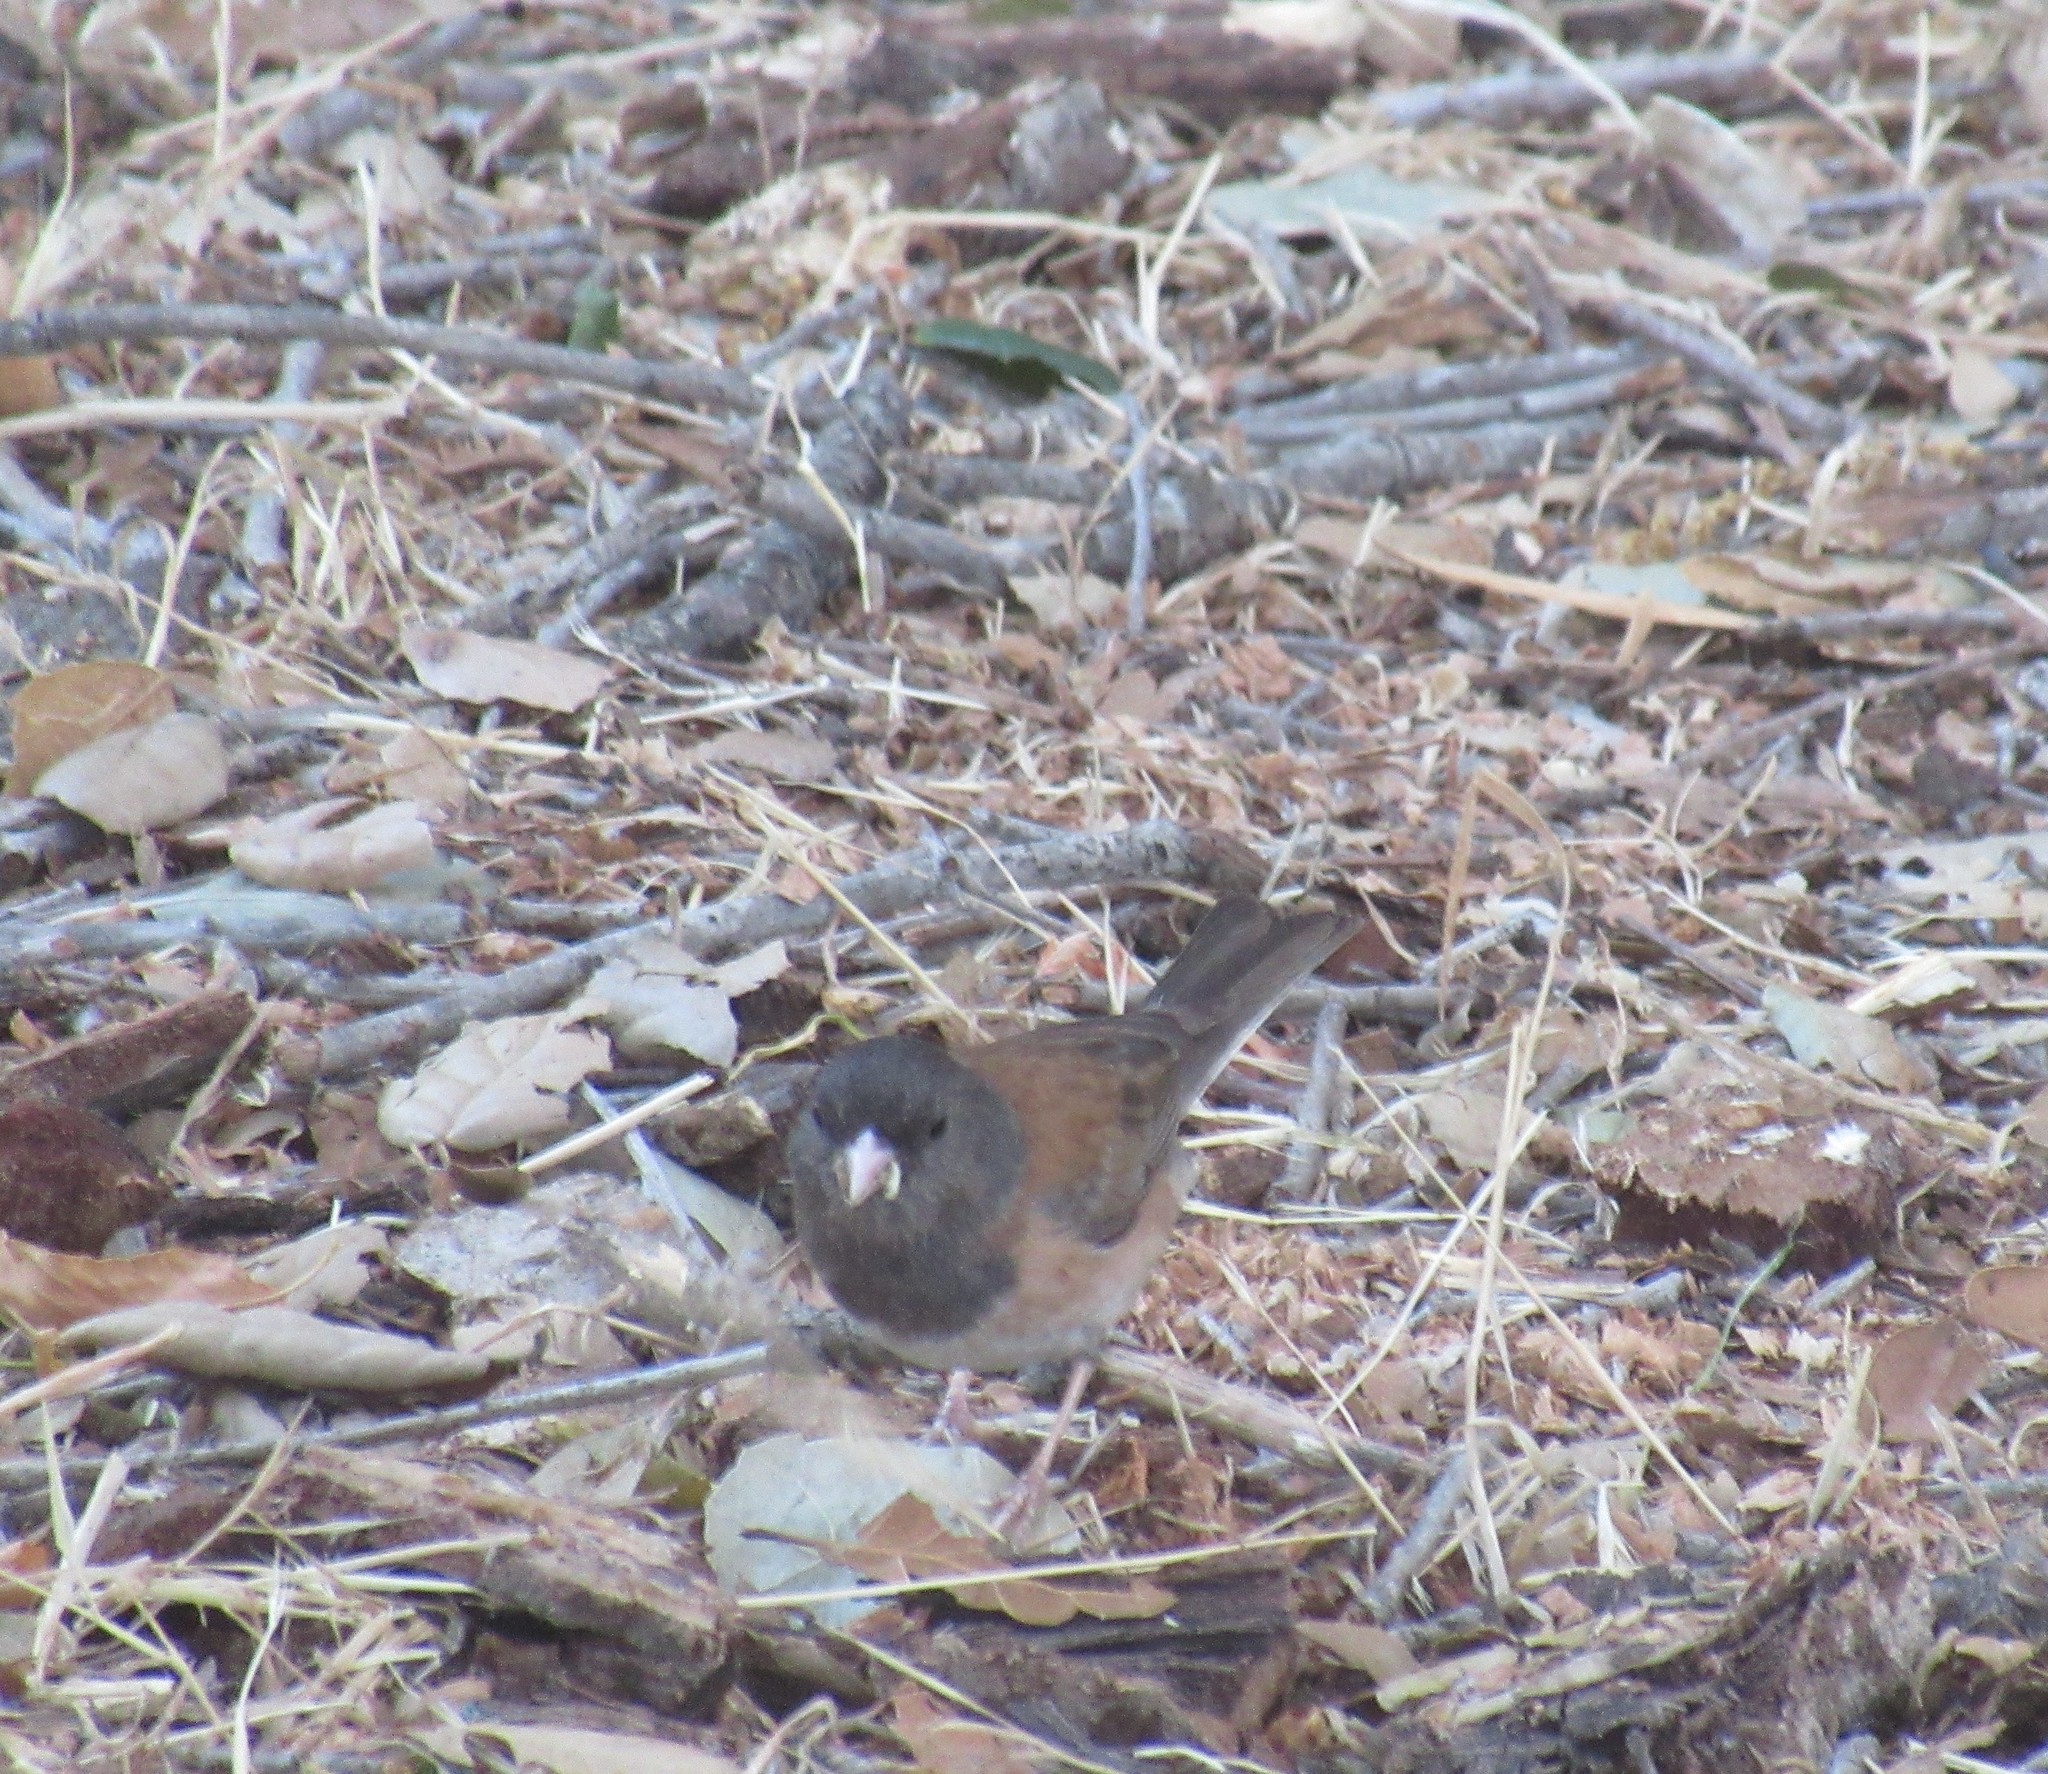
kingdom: Animalia
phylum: Chordata
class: Aves
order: Passeriformes
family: Passerellidae
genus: Junco
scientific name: Junco hyemalis
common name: Dark-eyed junco
